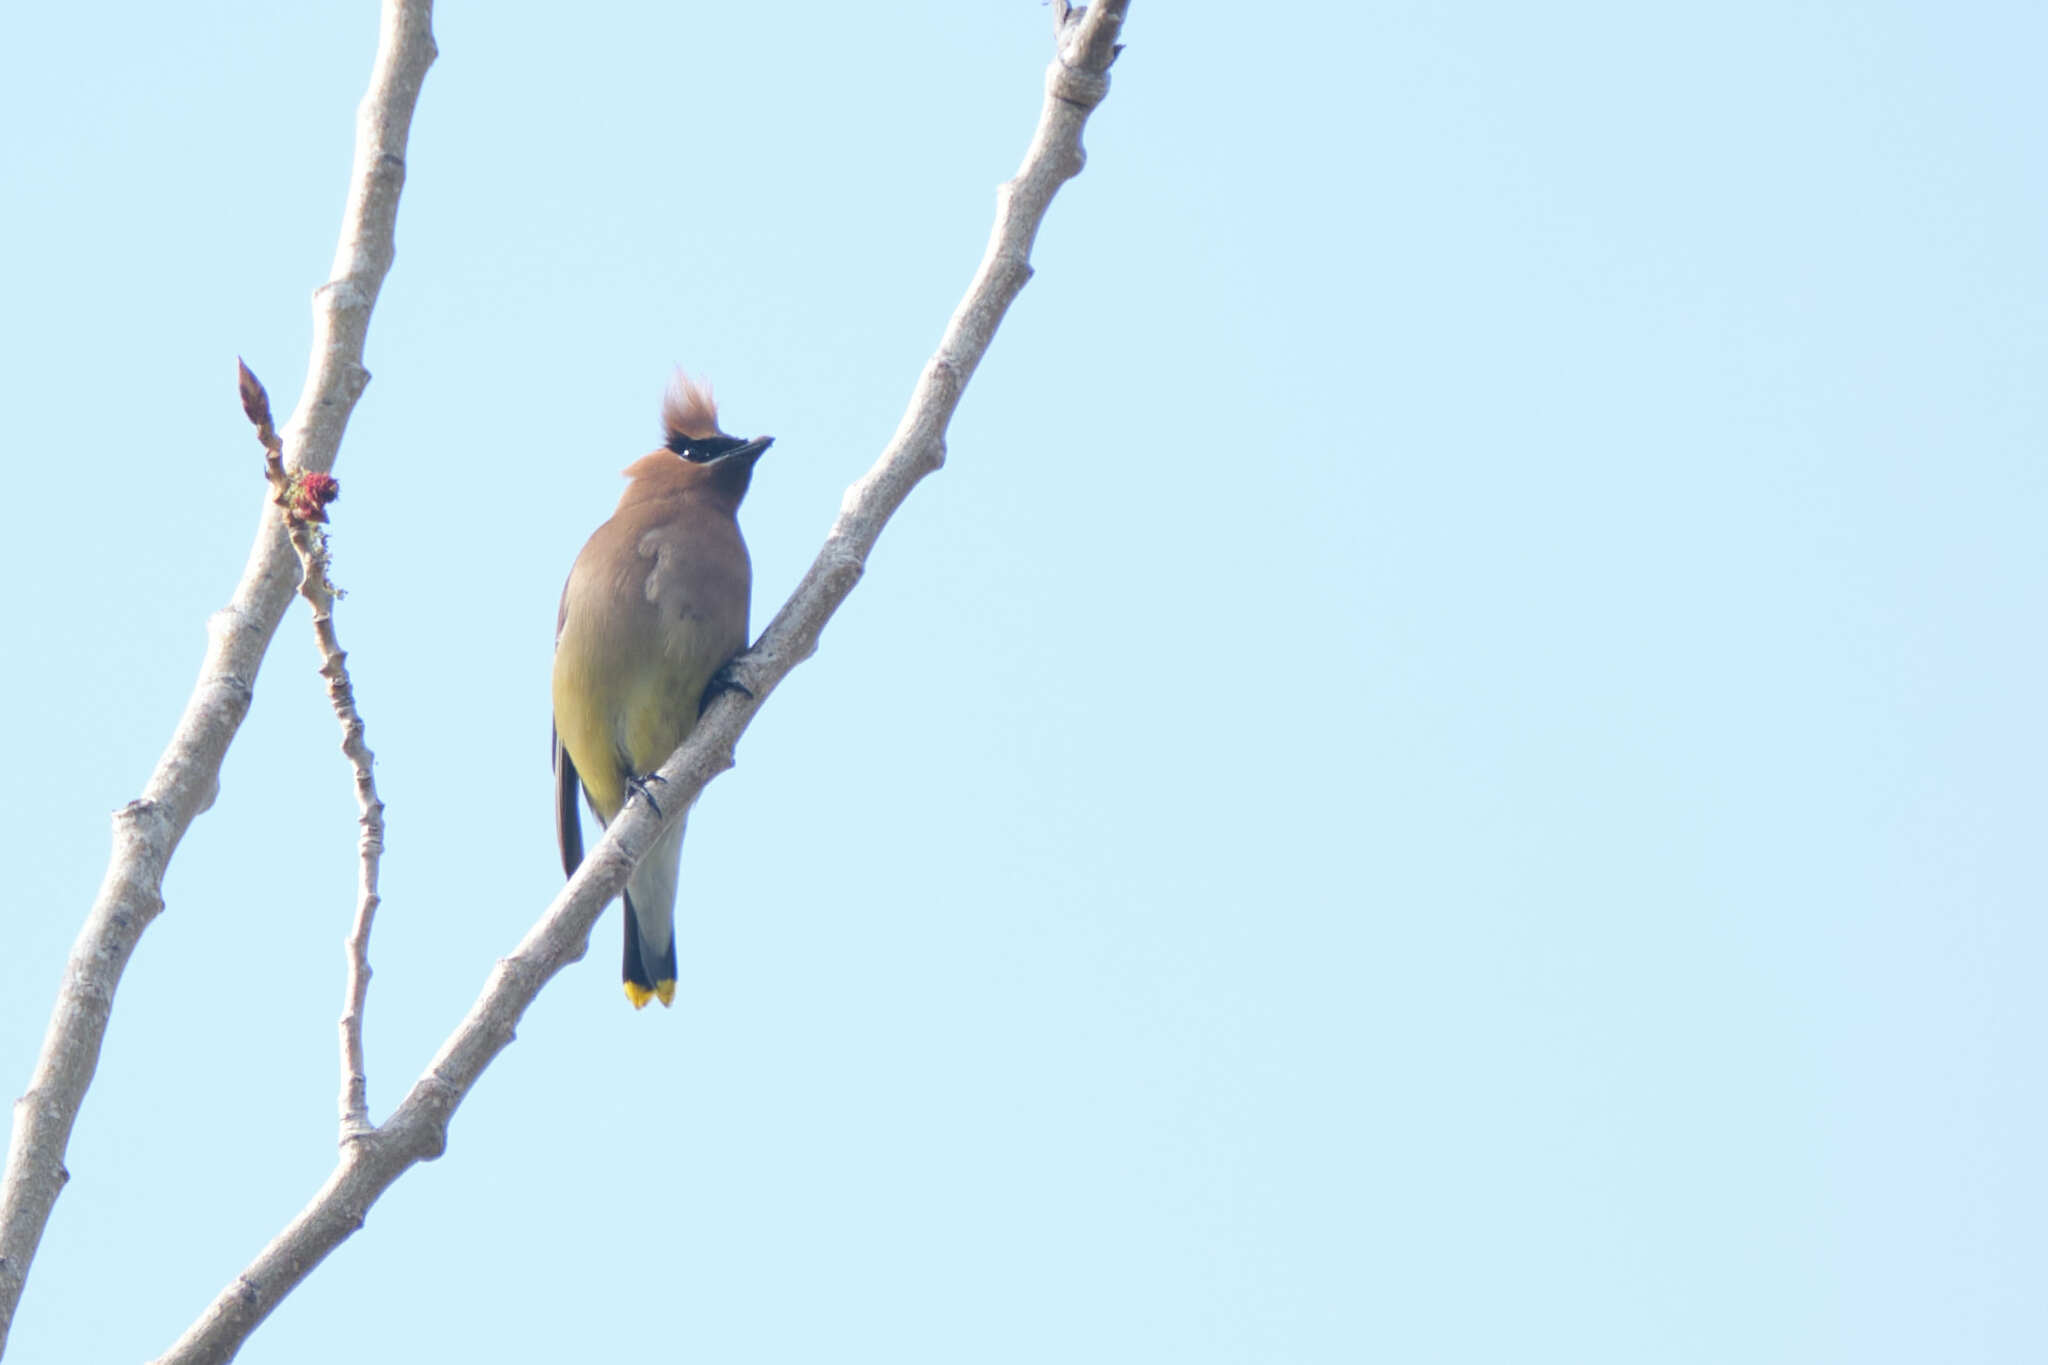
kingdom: Animalia
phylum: Chordata
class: Aves
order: Passeriformes
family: Bombycillidae
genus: Bombycilla
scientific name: Bombycilla cedrorum
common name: Cedar waxwing
